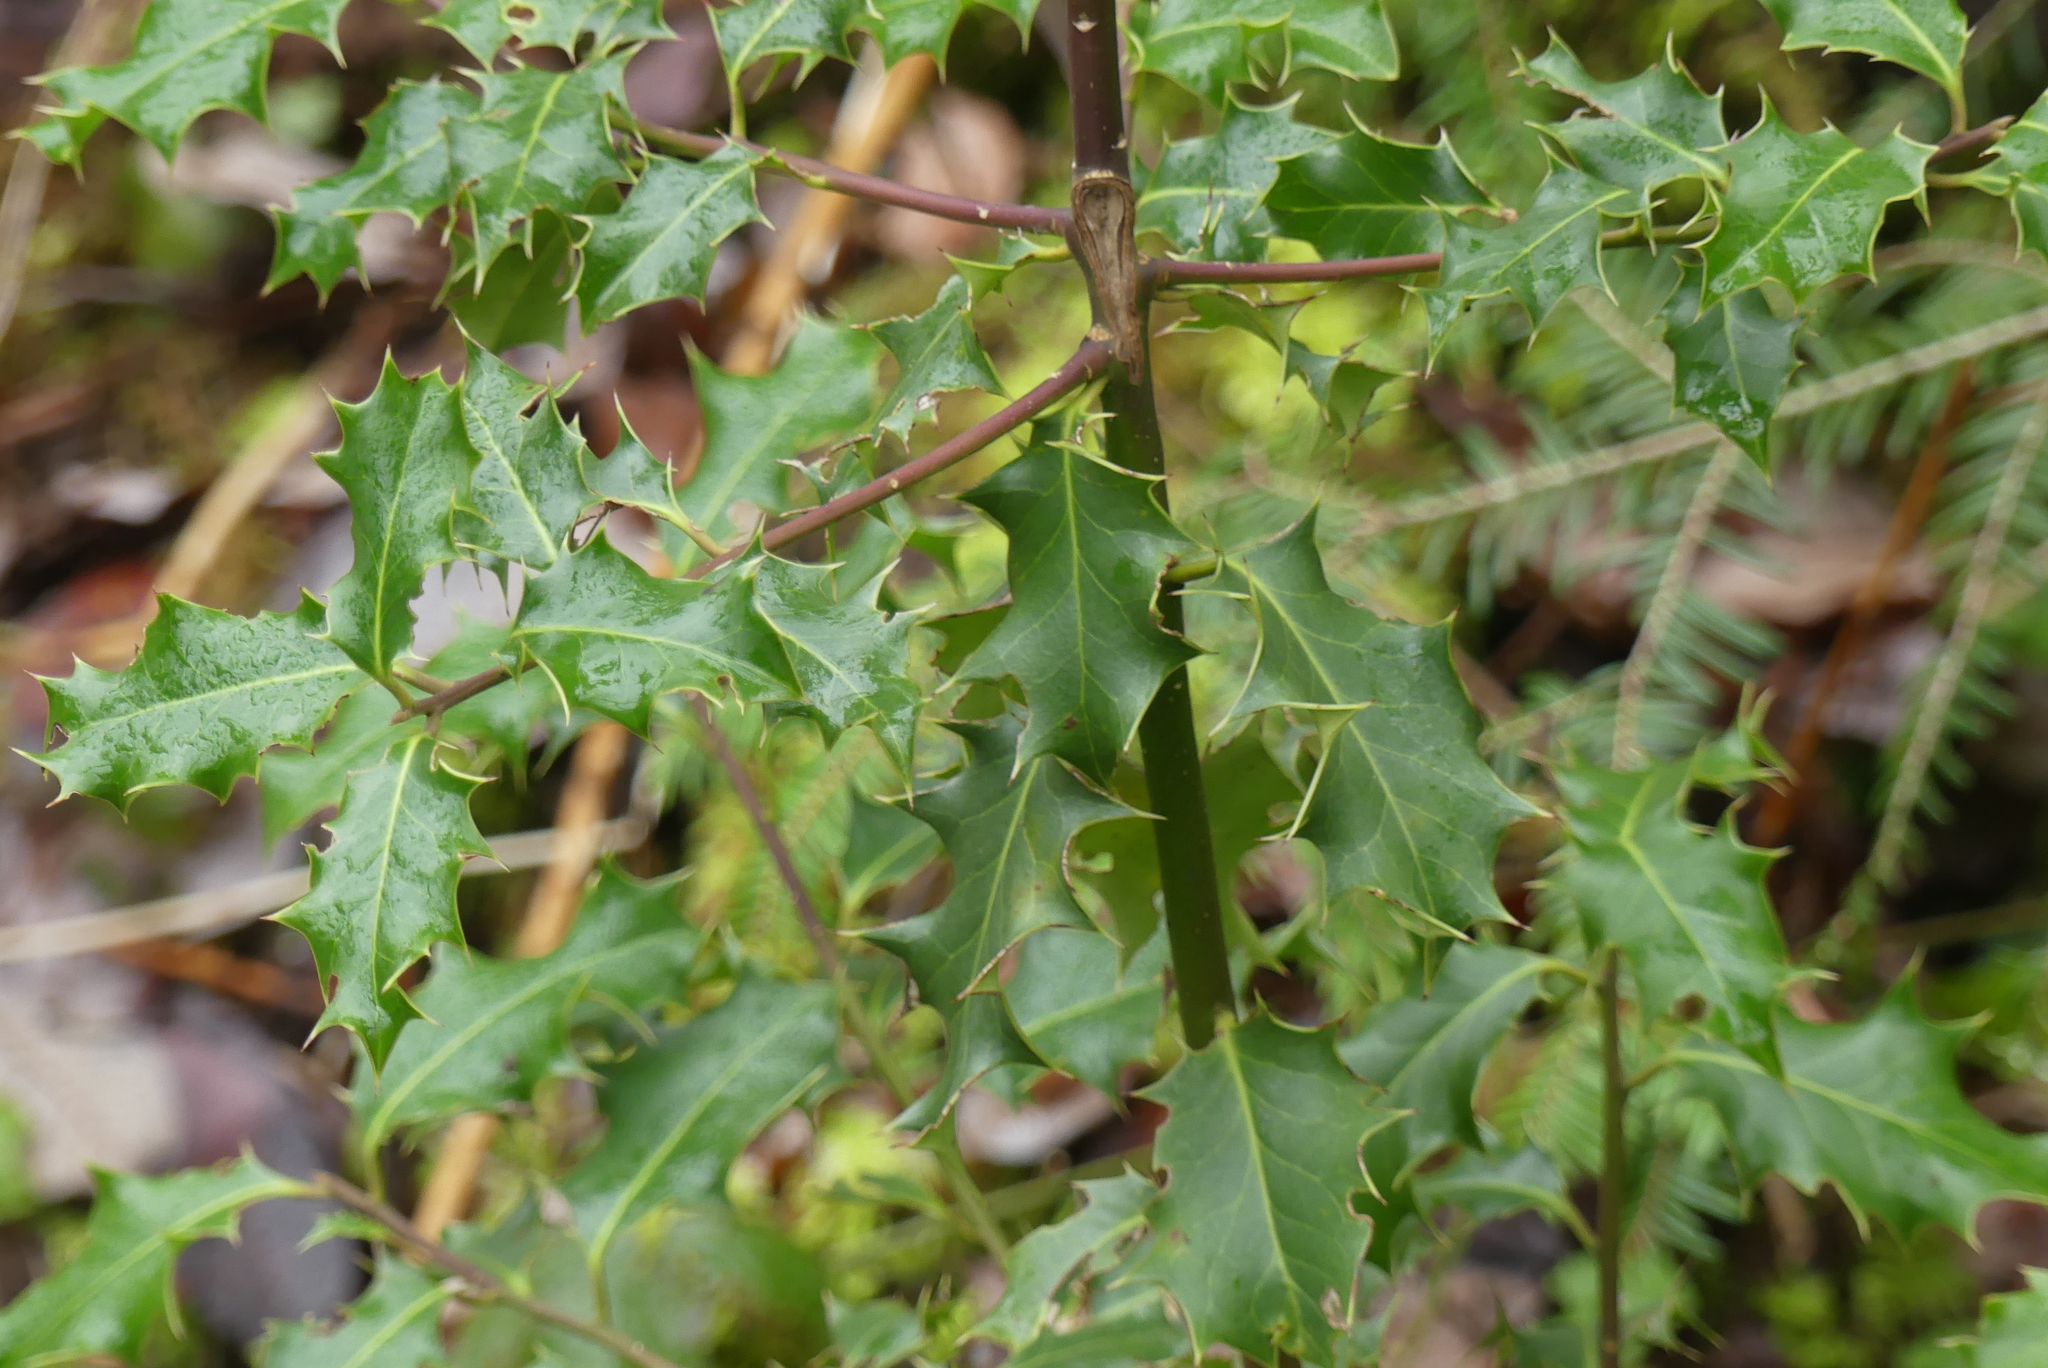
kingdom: Plantae
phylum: Tracheophyta
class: Magnoliopsida
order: Aquifoliales
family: Aquifoliaceae
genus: Ilex
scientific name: Ilex aquifolium
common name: English holly
